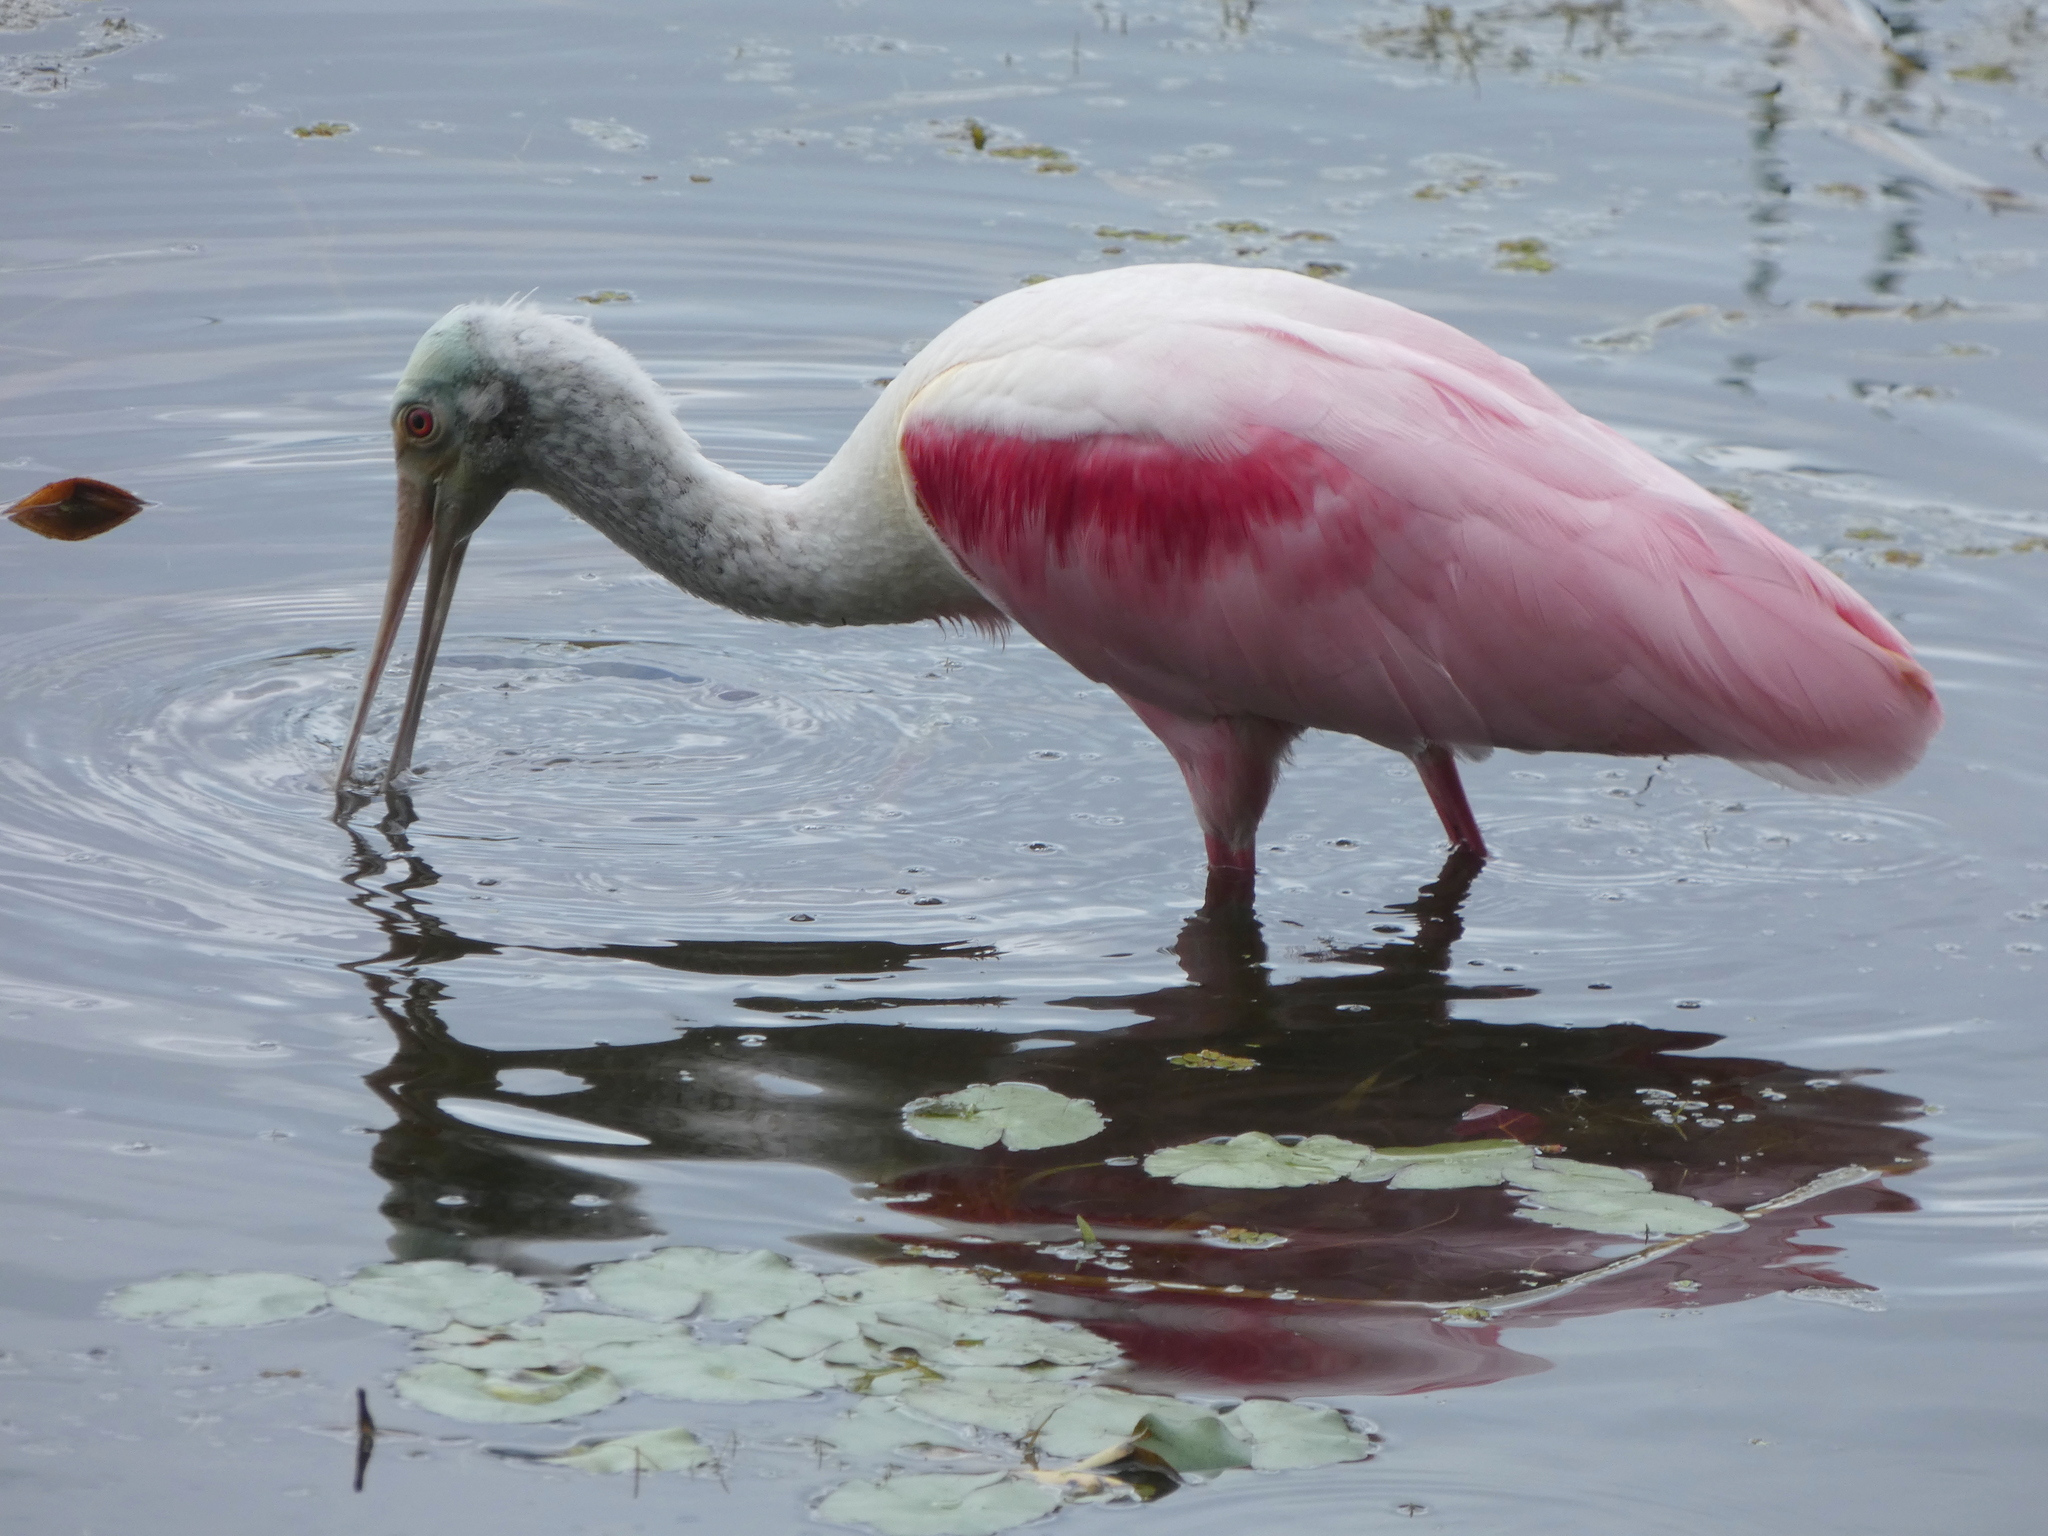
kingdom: Animalia
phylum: Chordata
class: Aves
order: Pelecaniformes
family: Threskiornithidae
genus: Platalea
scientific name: Platalea ajaja
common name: Roseate spoonbill
